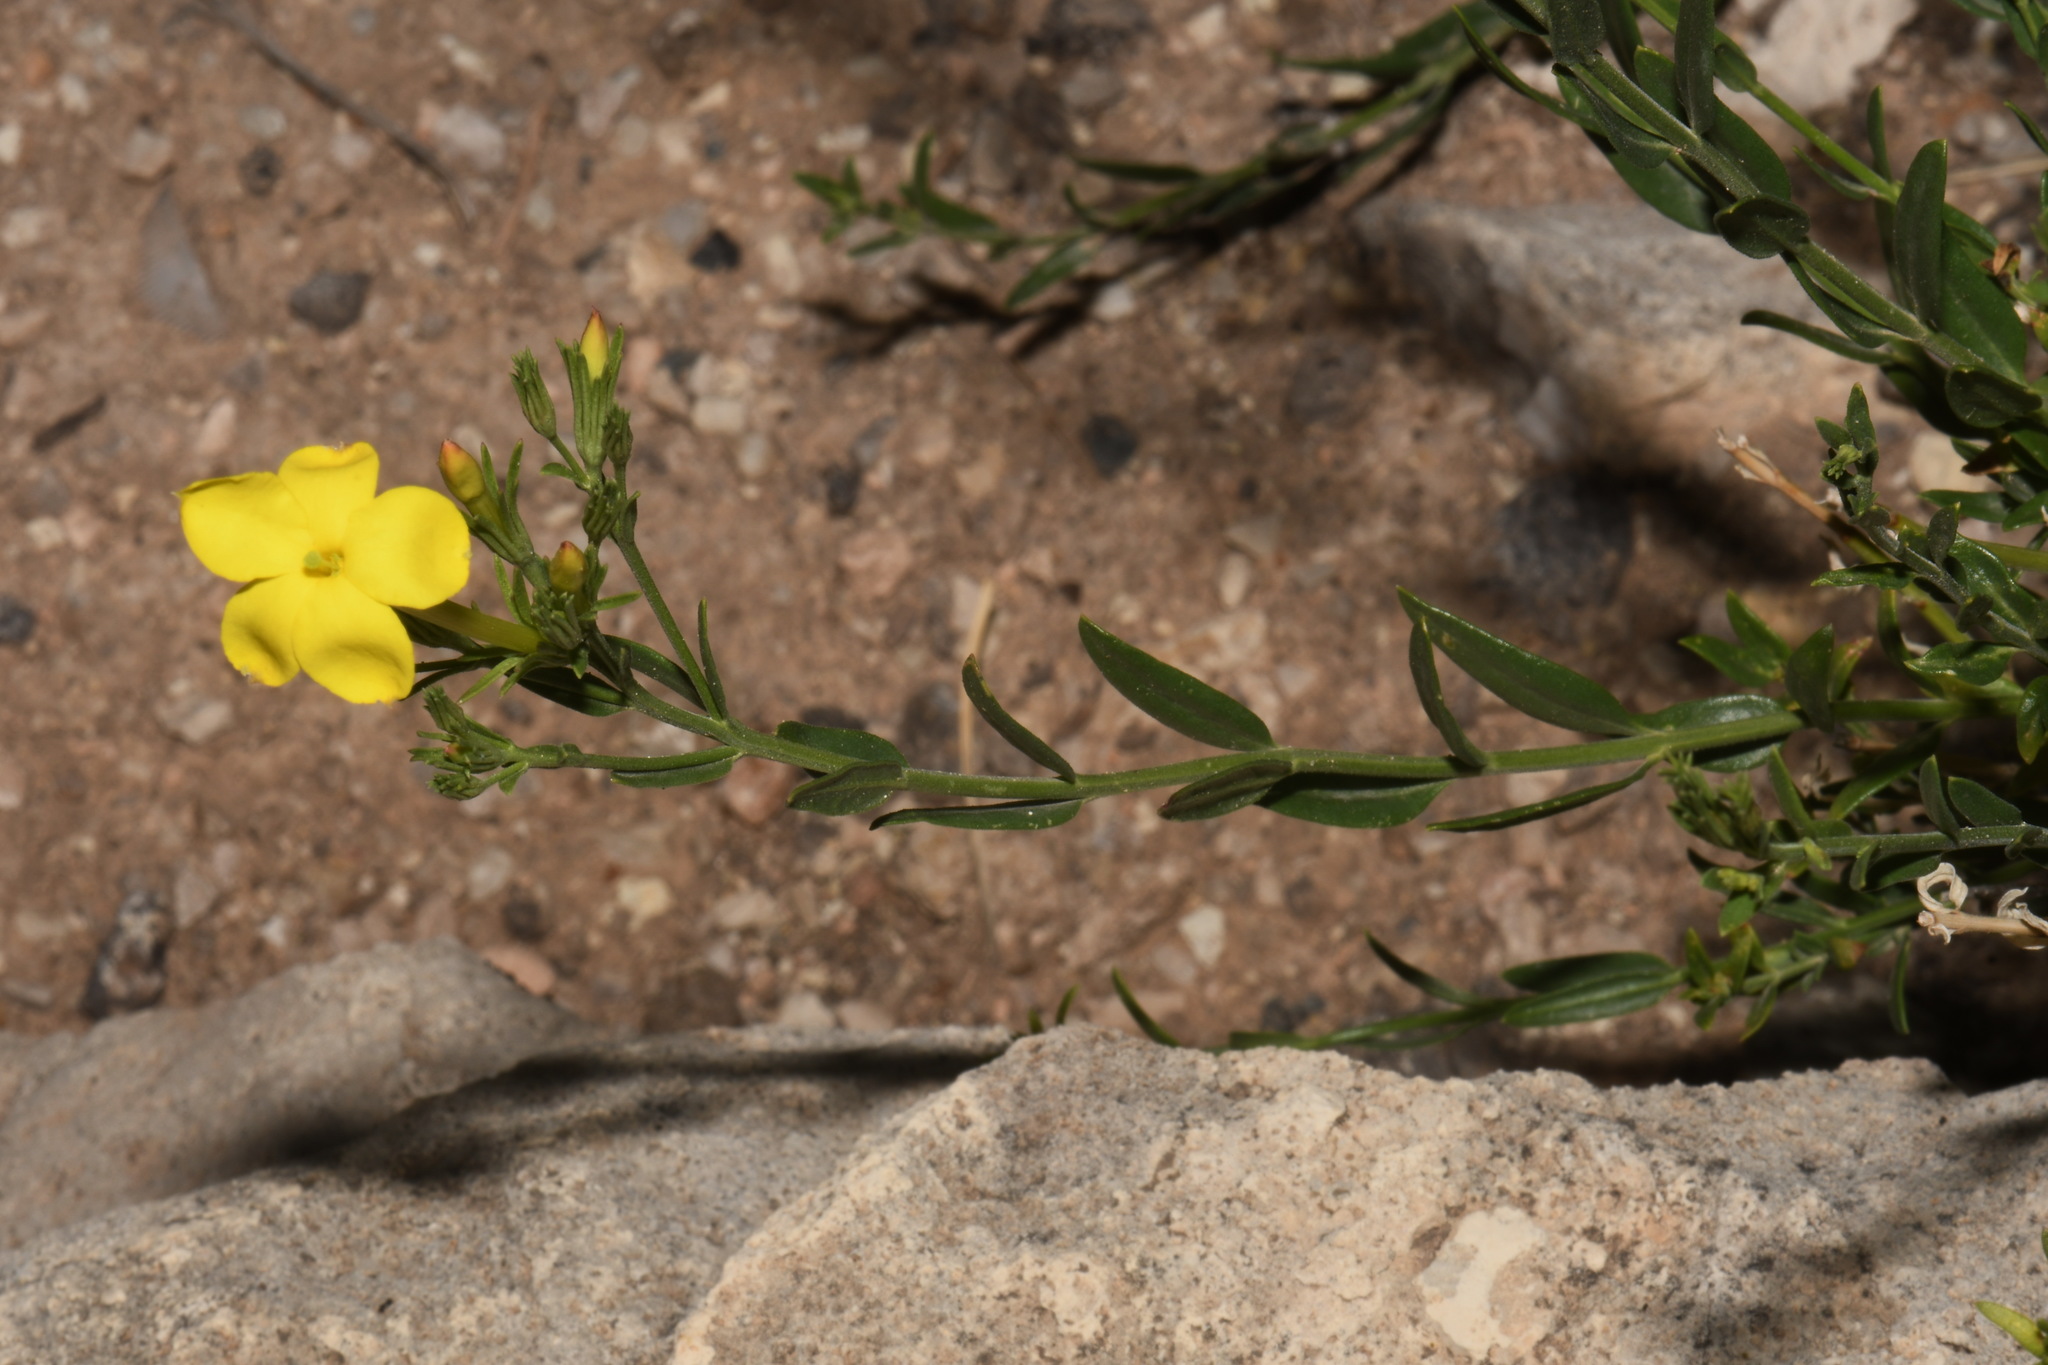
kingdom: Plantae
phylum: Tracheophyta
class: Magnoliopsida
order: Lamiales
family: Oleaceae
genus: Menodora
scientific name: Menodora longiflora
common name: Showy menodora
